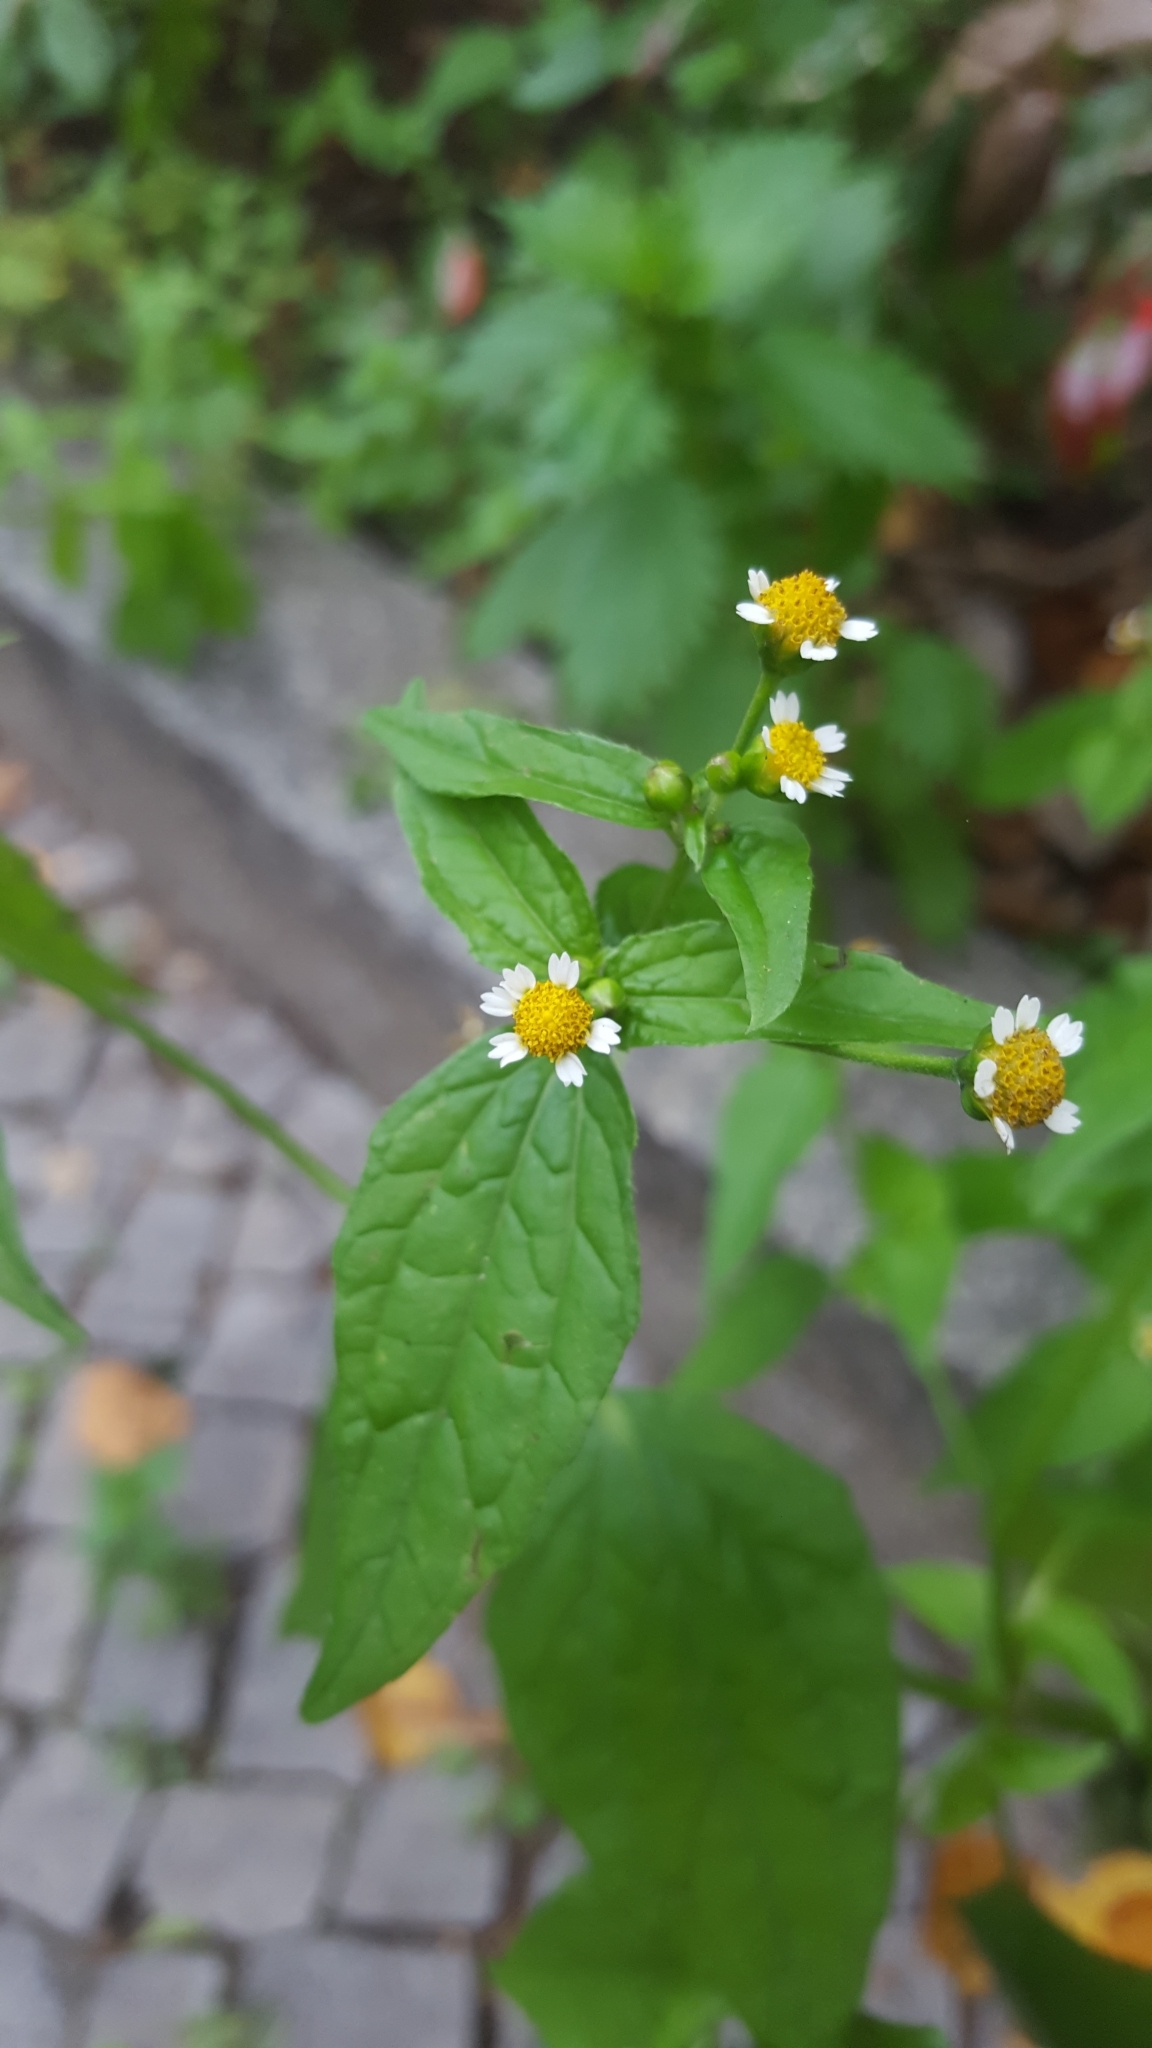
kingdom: Plantae
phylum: Tracheophyta
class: Magnoliopsida
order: Asterales
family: Asteraceae
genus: Galinsoga
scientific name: Galinsoga parviflora
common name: Gallant soldier
